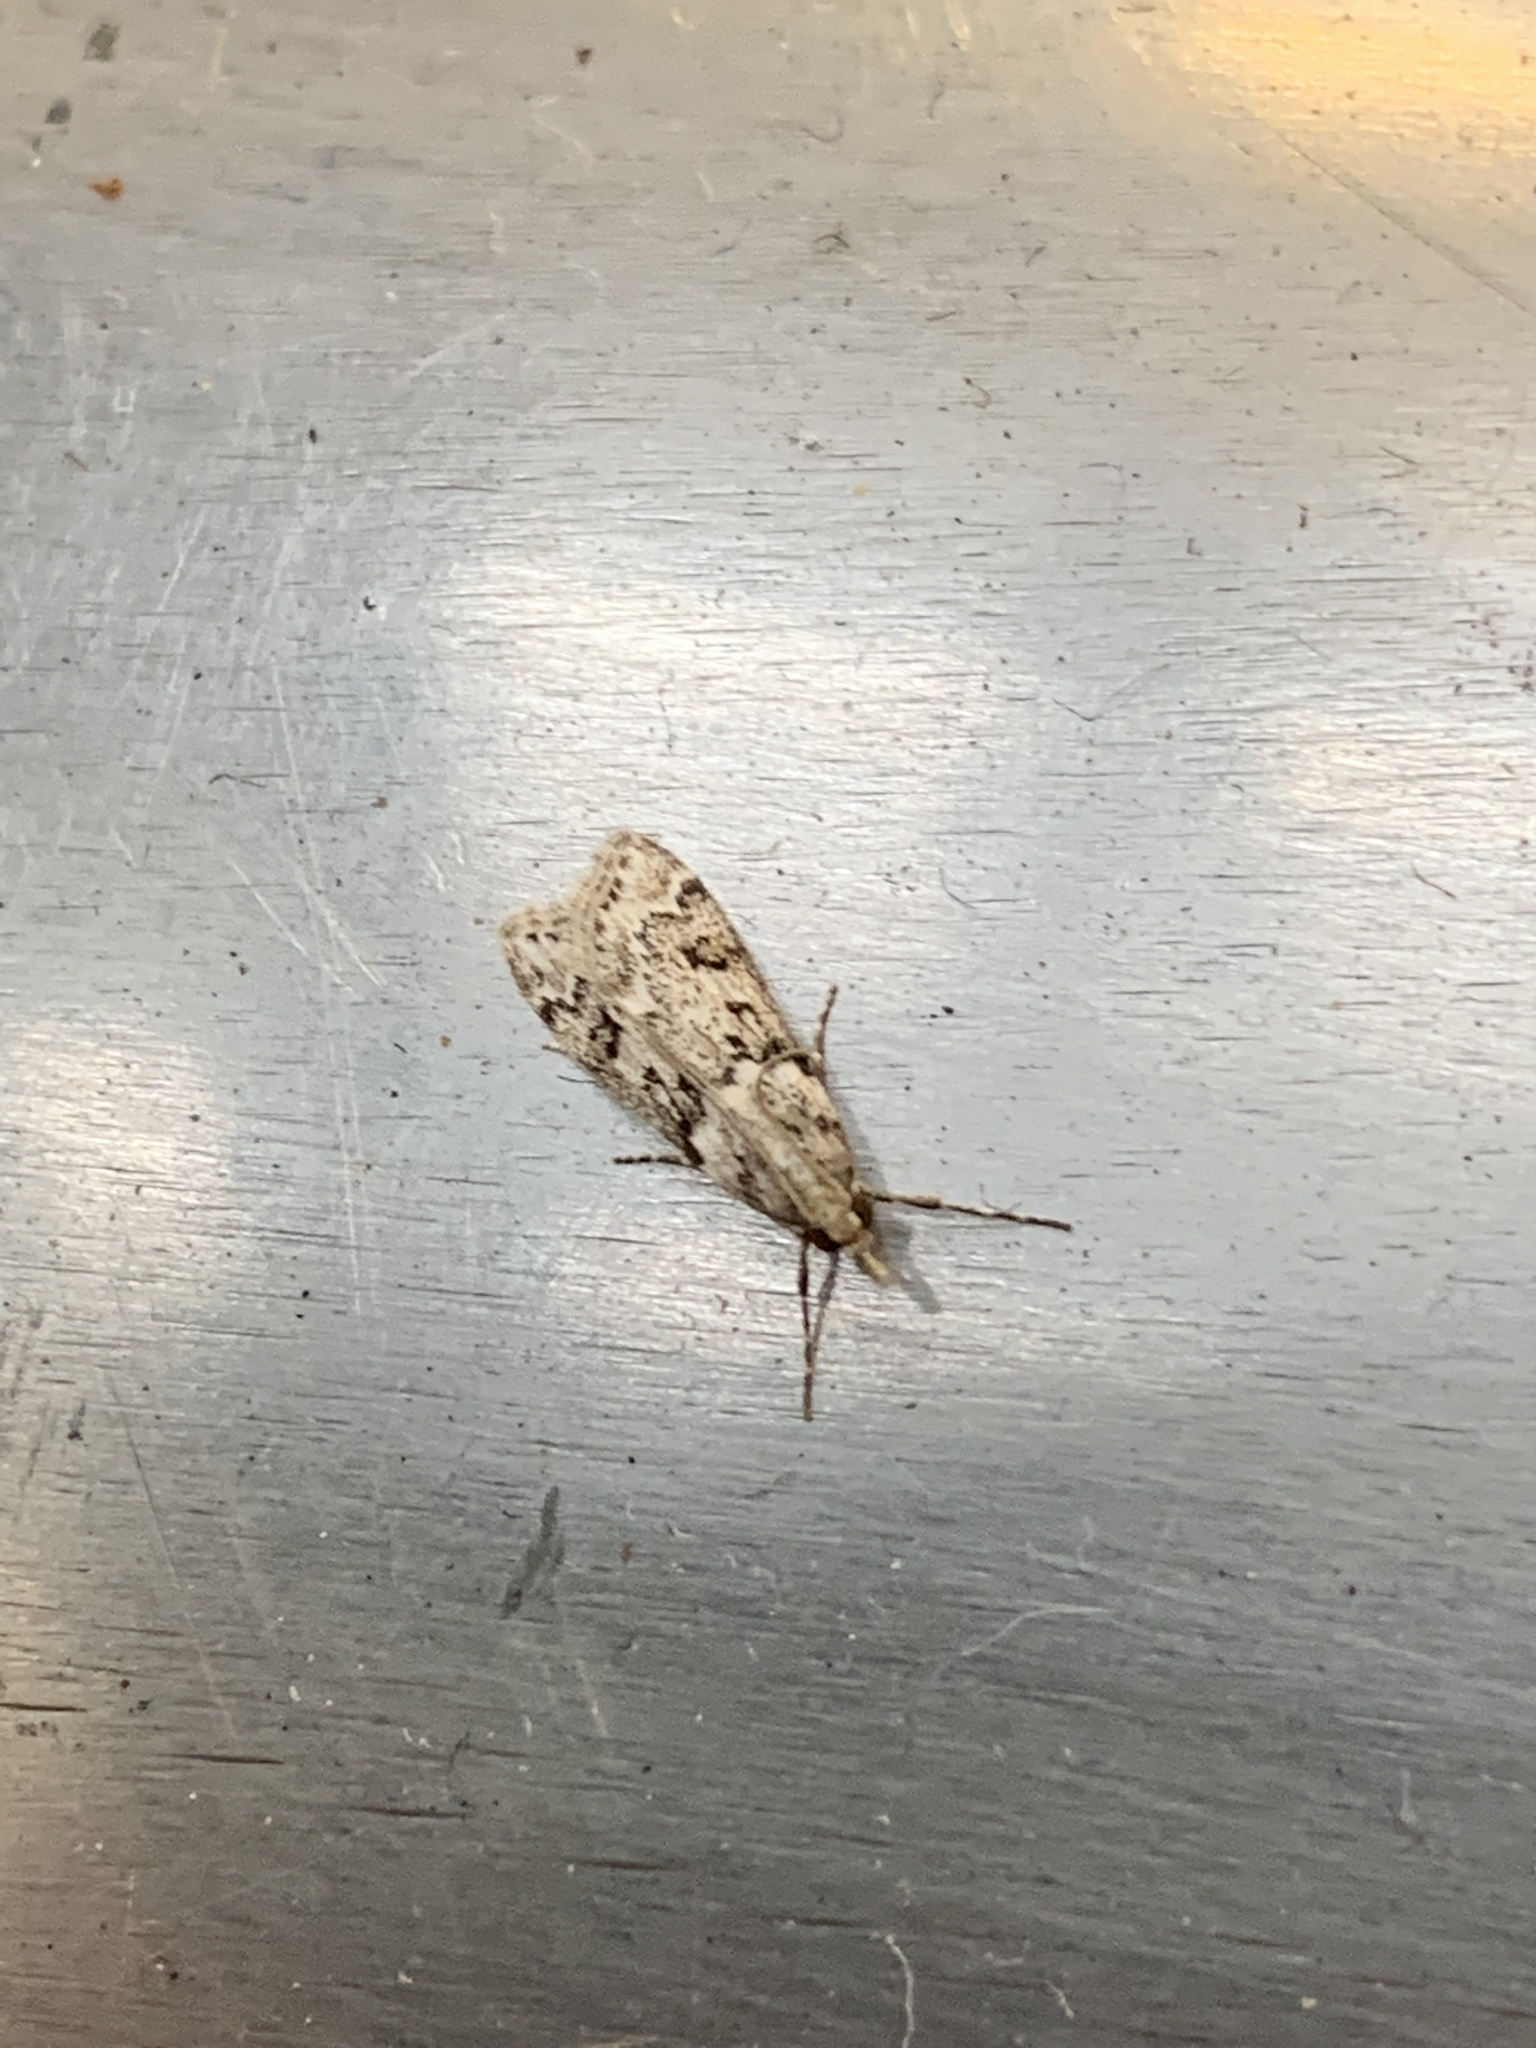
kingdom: Animalia
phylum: Arthropoda
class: Insecta
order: Lepidoptera
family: Crambidae
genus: Eudonia
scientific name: Eudonia angustea
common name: Narrow-winged grey
